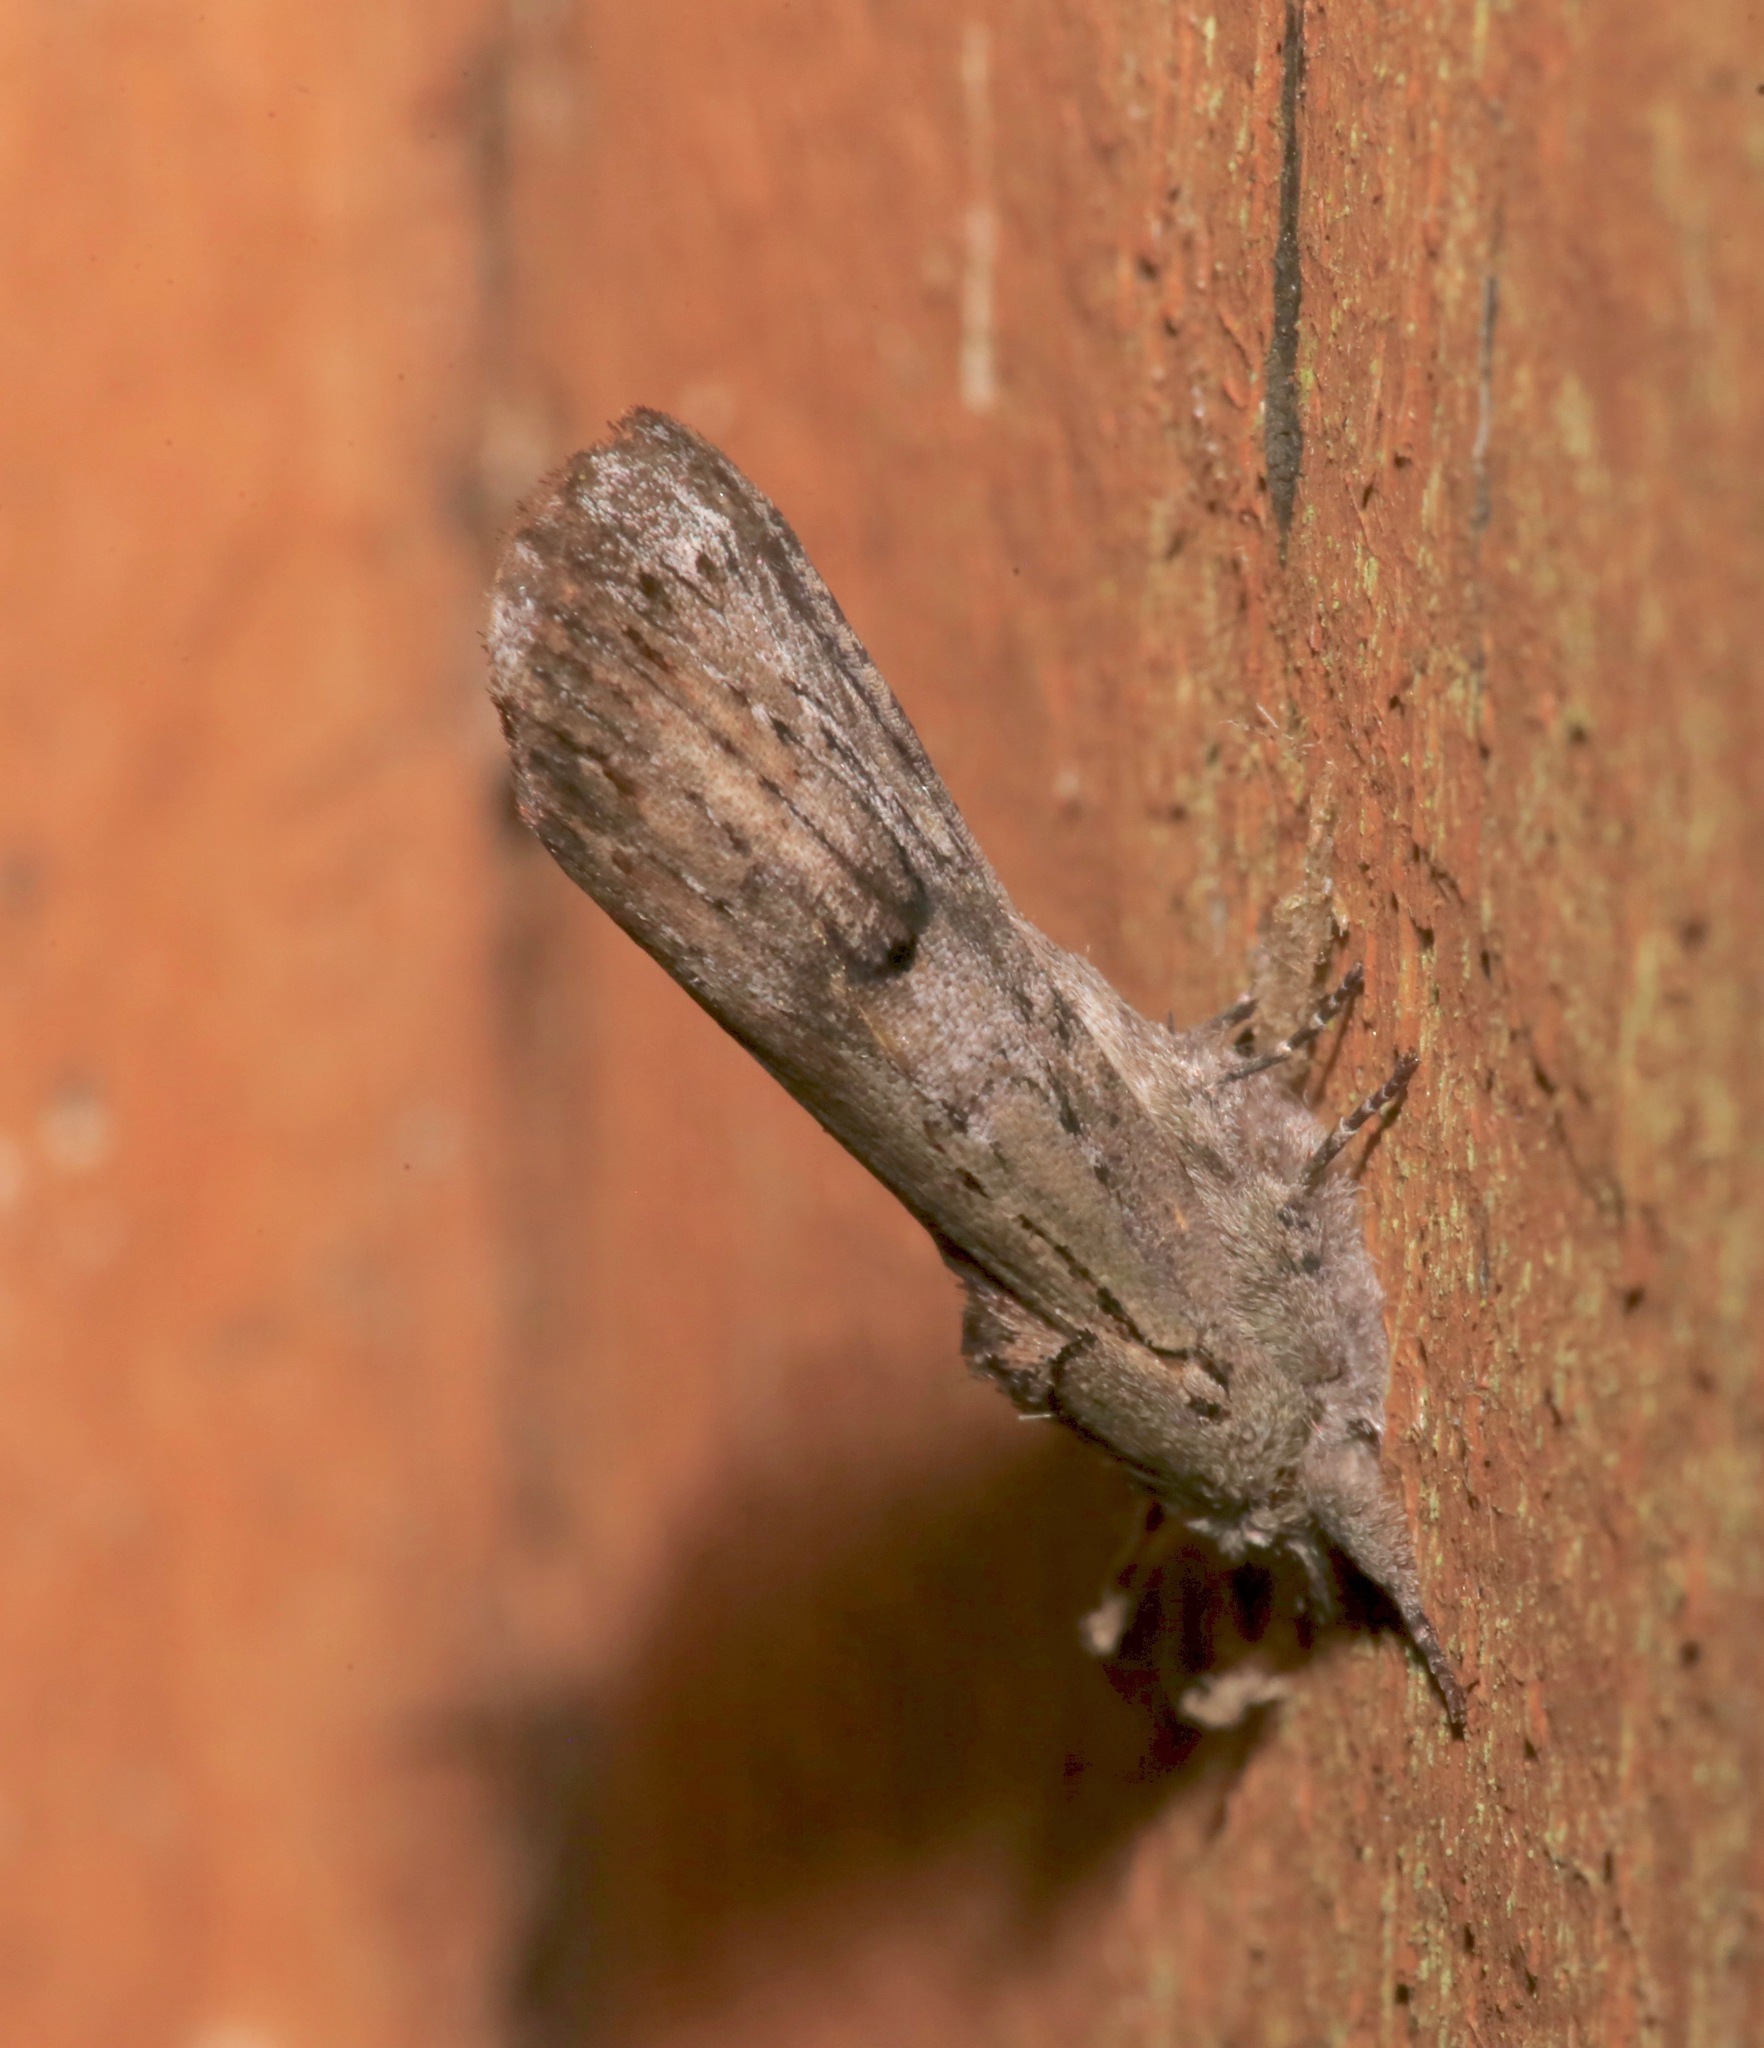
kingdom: Animalia
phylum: Arthropoda
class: Insecta
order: Lepidoptera
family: Notodontidae
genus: Schizura
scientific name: Schizura
